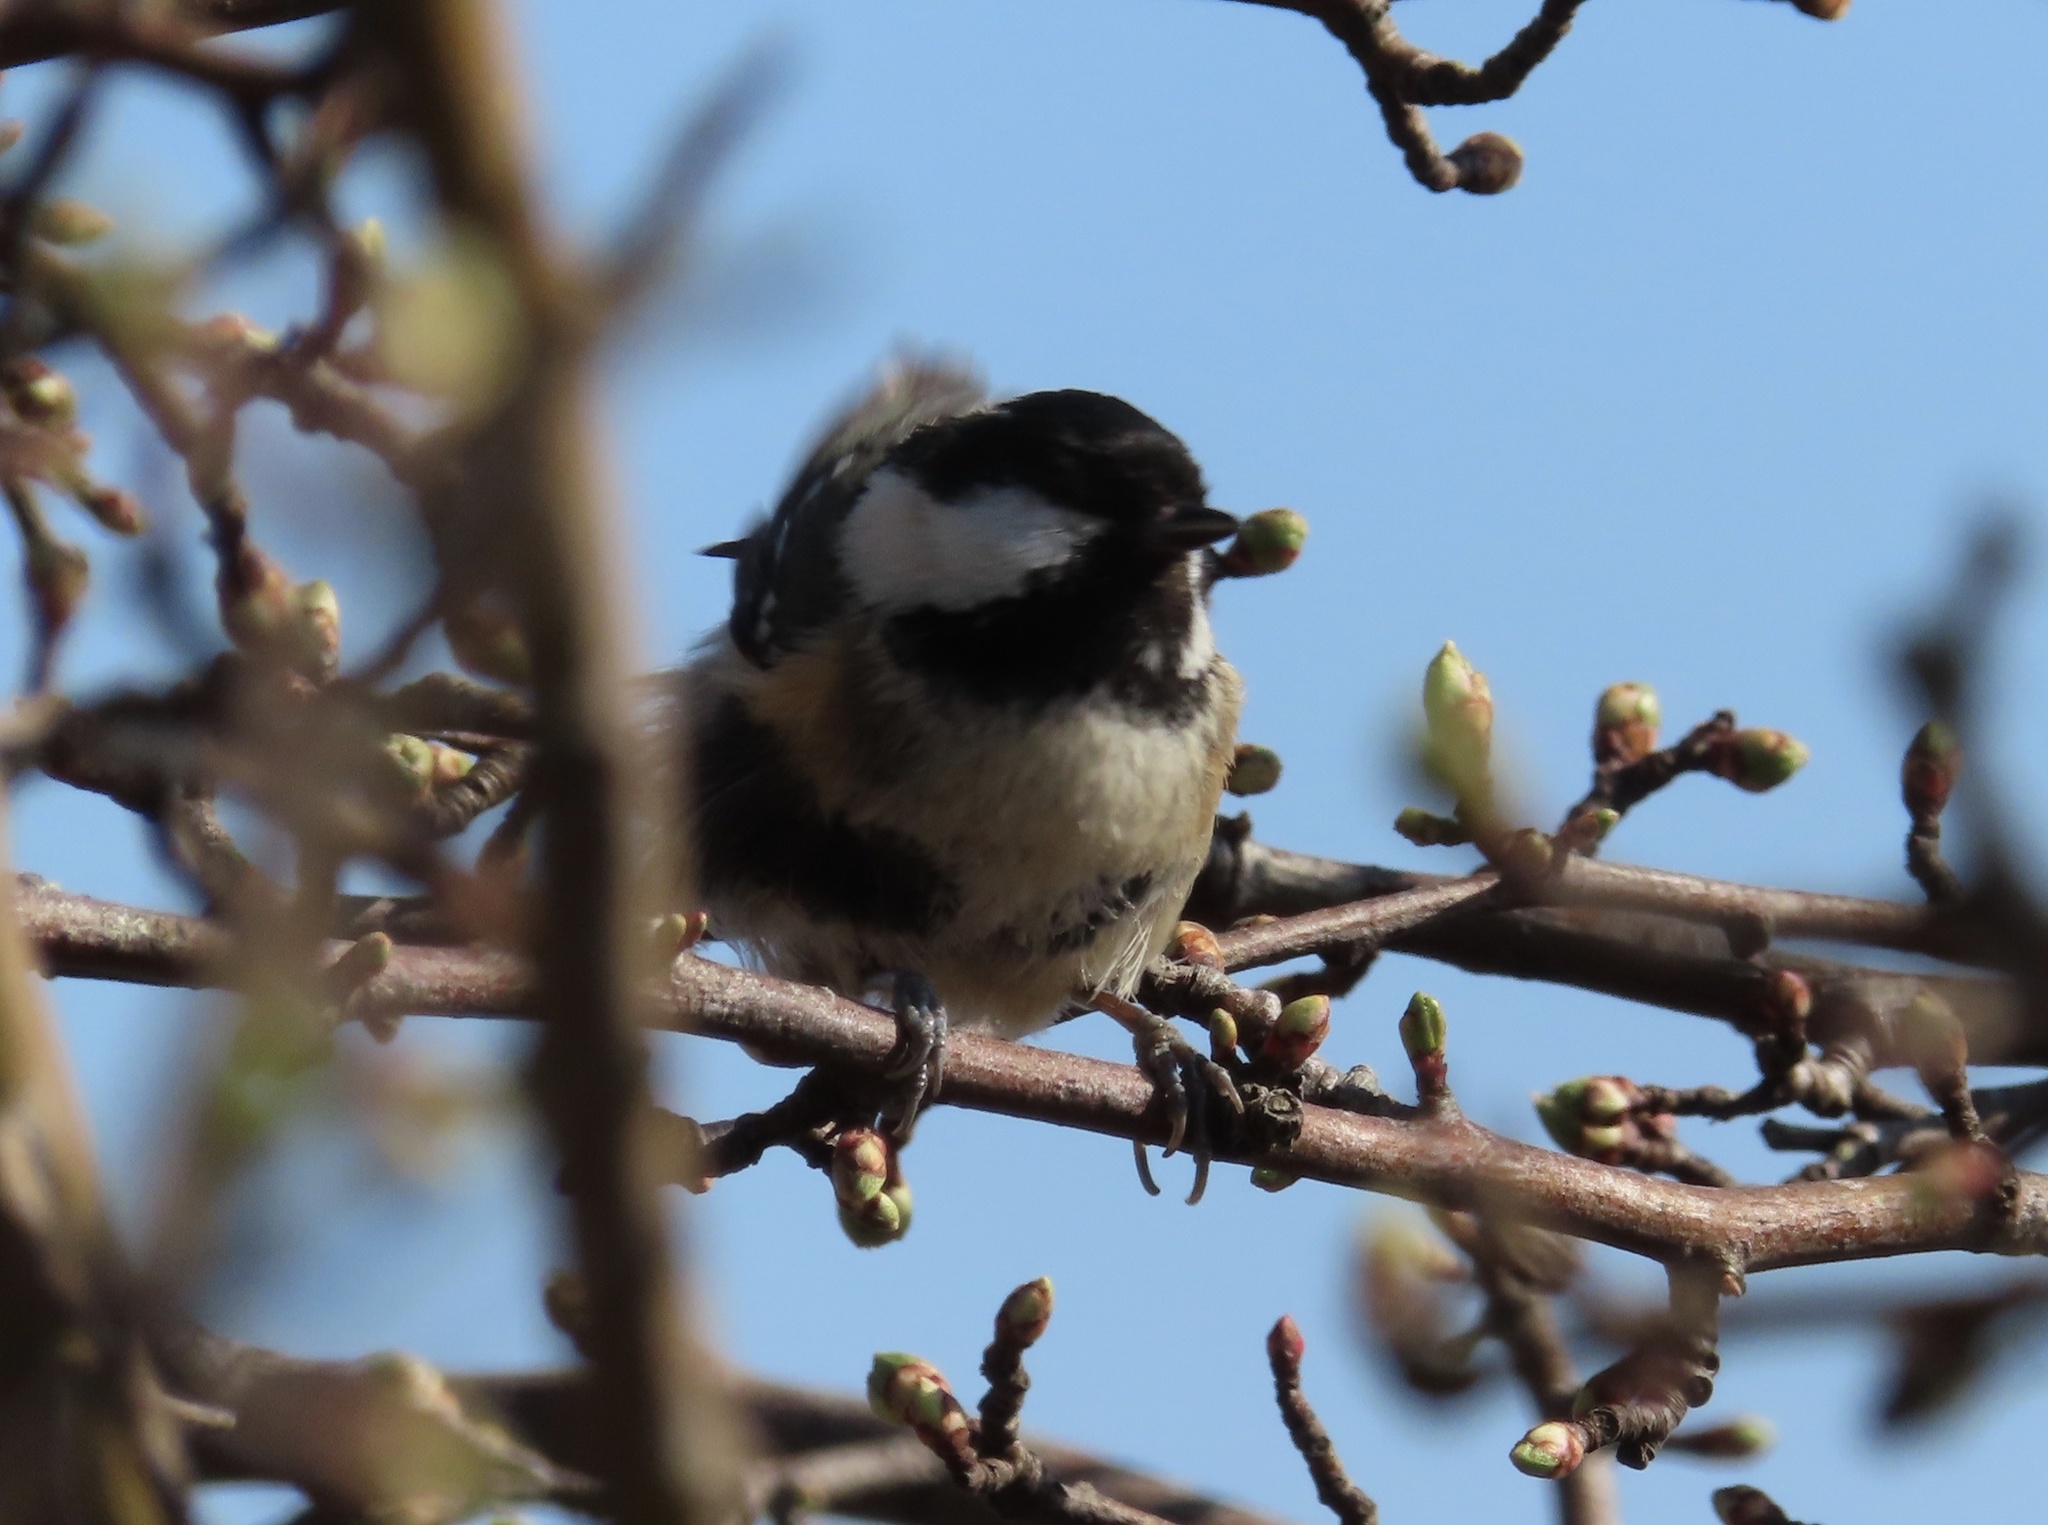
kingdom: Animalia
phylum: Chordata
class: Aves
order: Passeriformes
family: Paridae
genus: Periparus
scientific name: Periparus ater
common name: Coal tit
